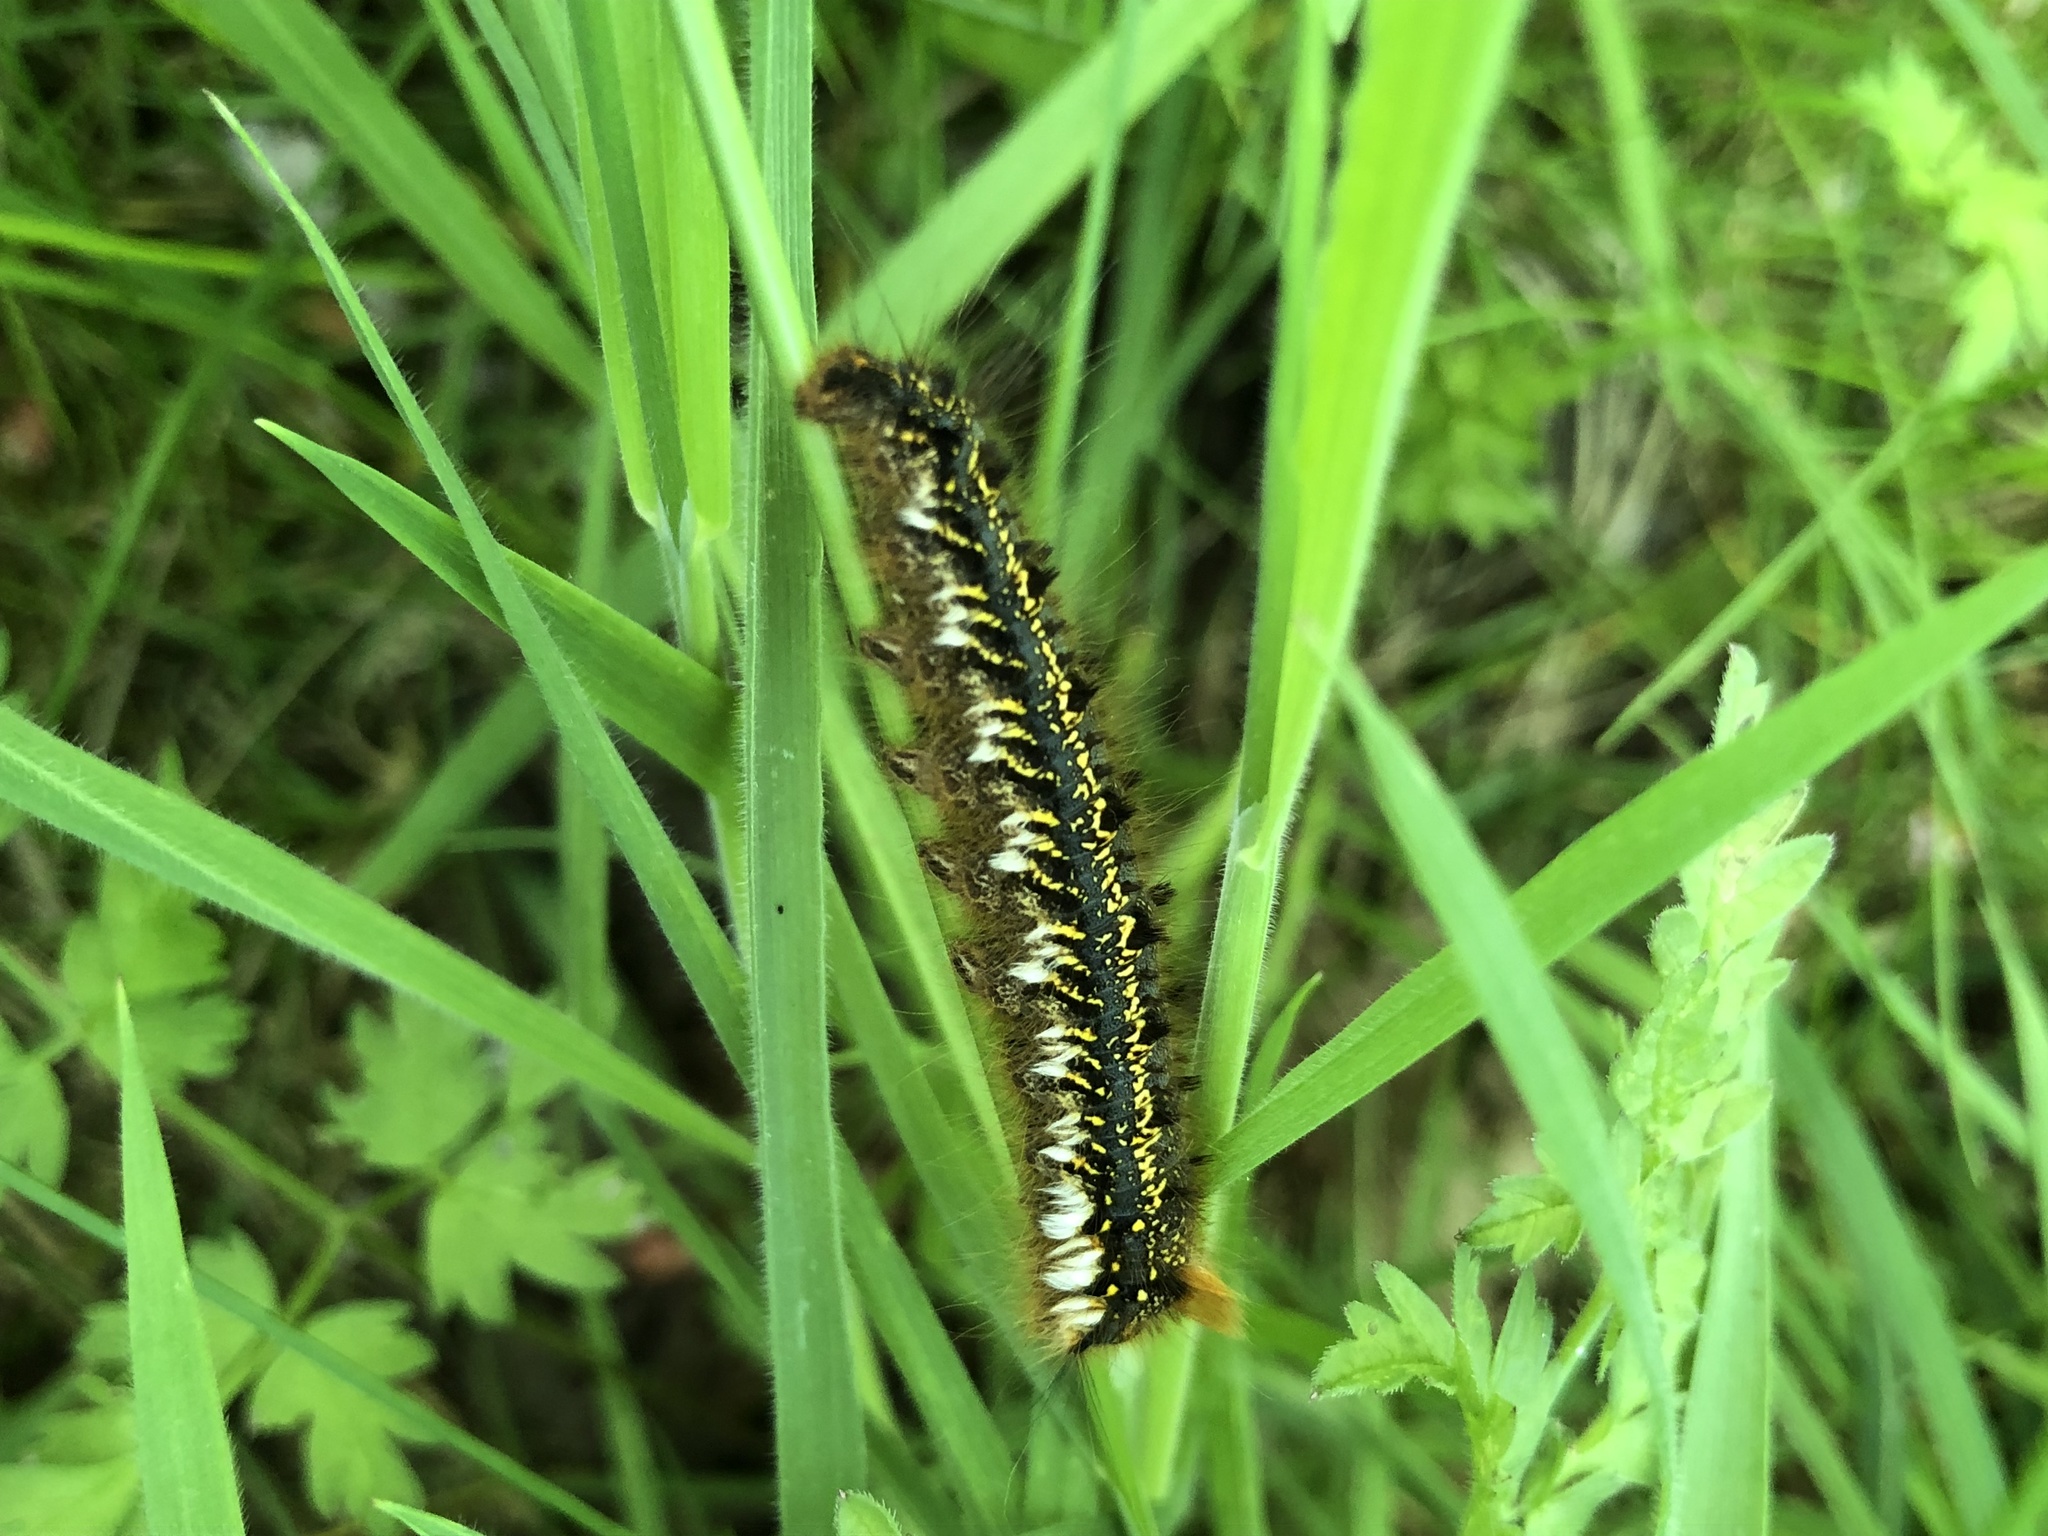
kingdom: Animalia
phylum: Arthropoda
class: Insecta
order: Lepidoptera
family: Lasiocampidae
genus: Euthrix
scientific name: Euthrix potatoria
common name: Drinker
